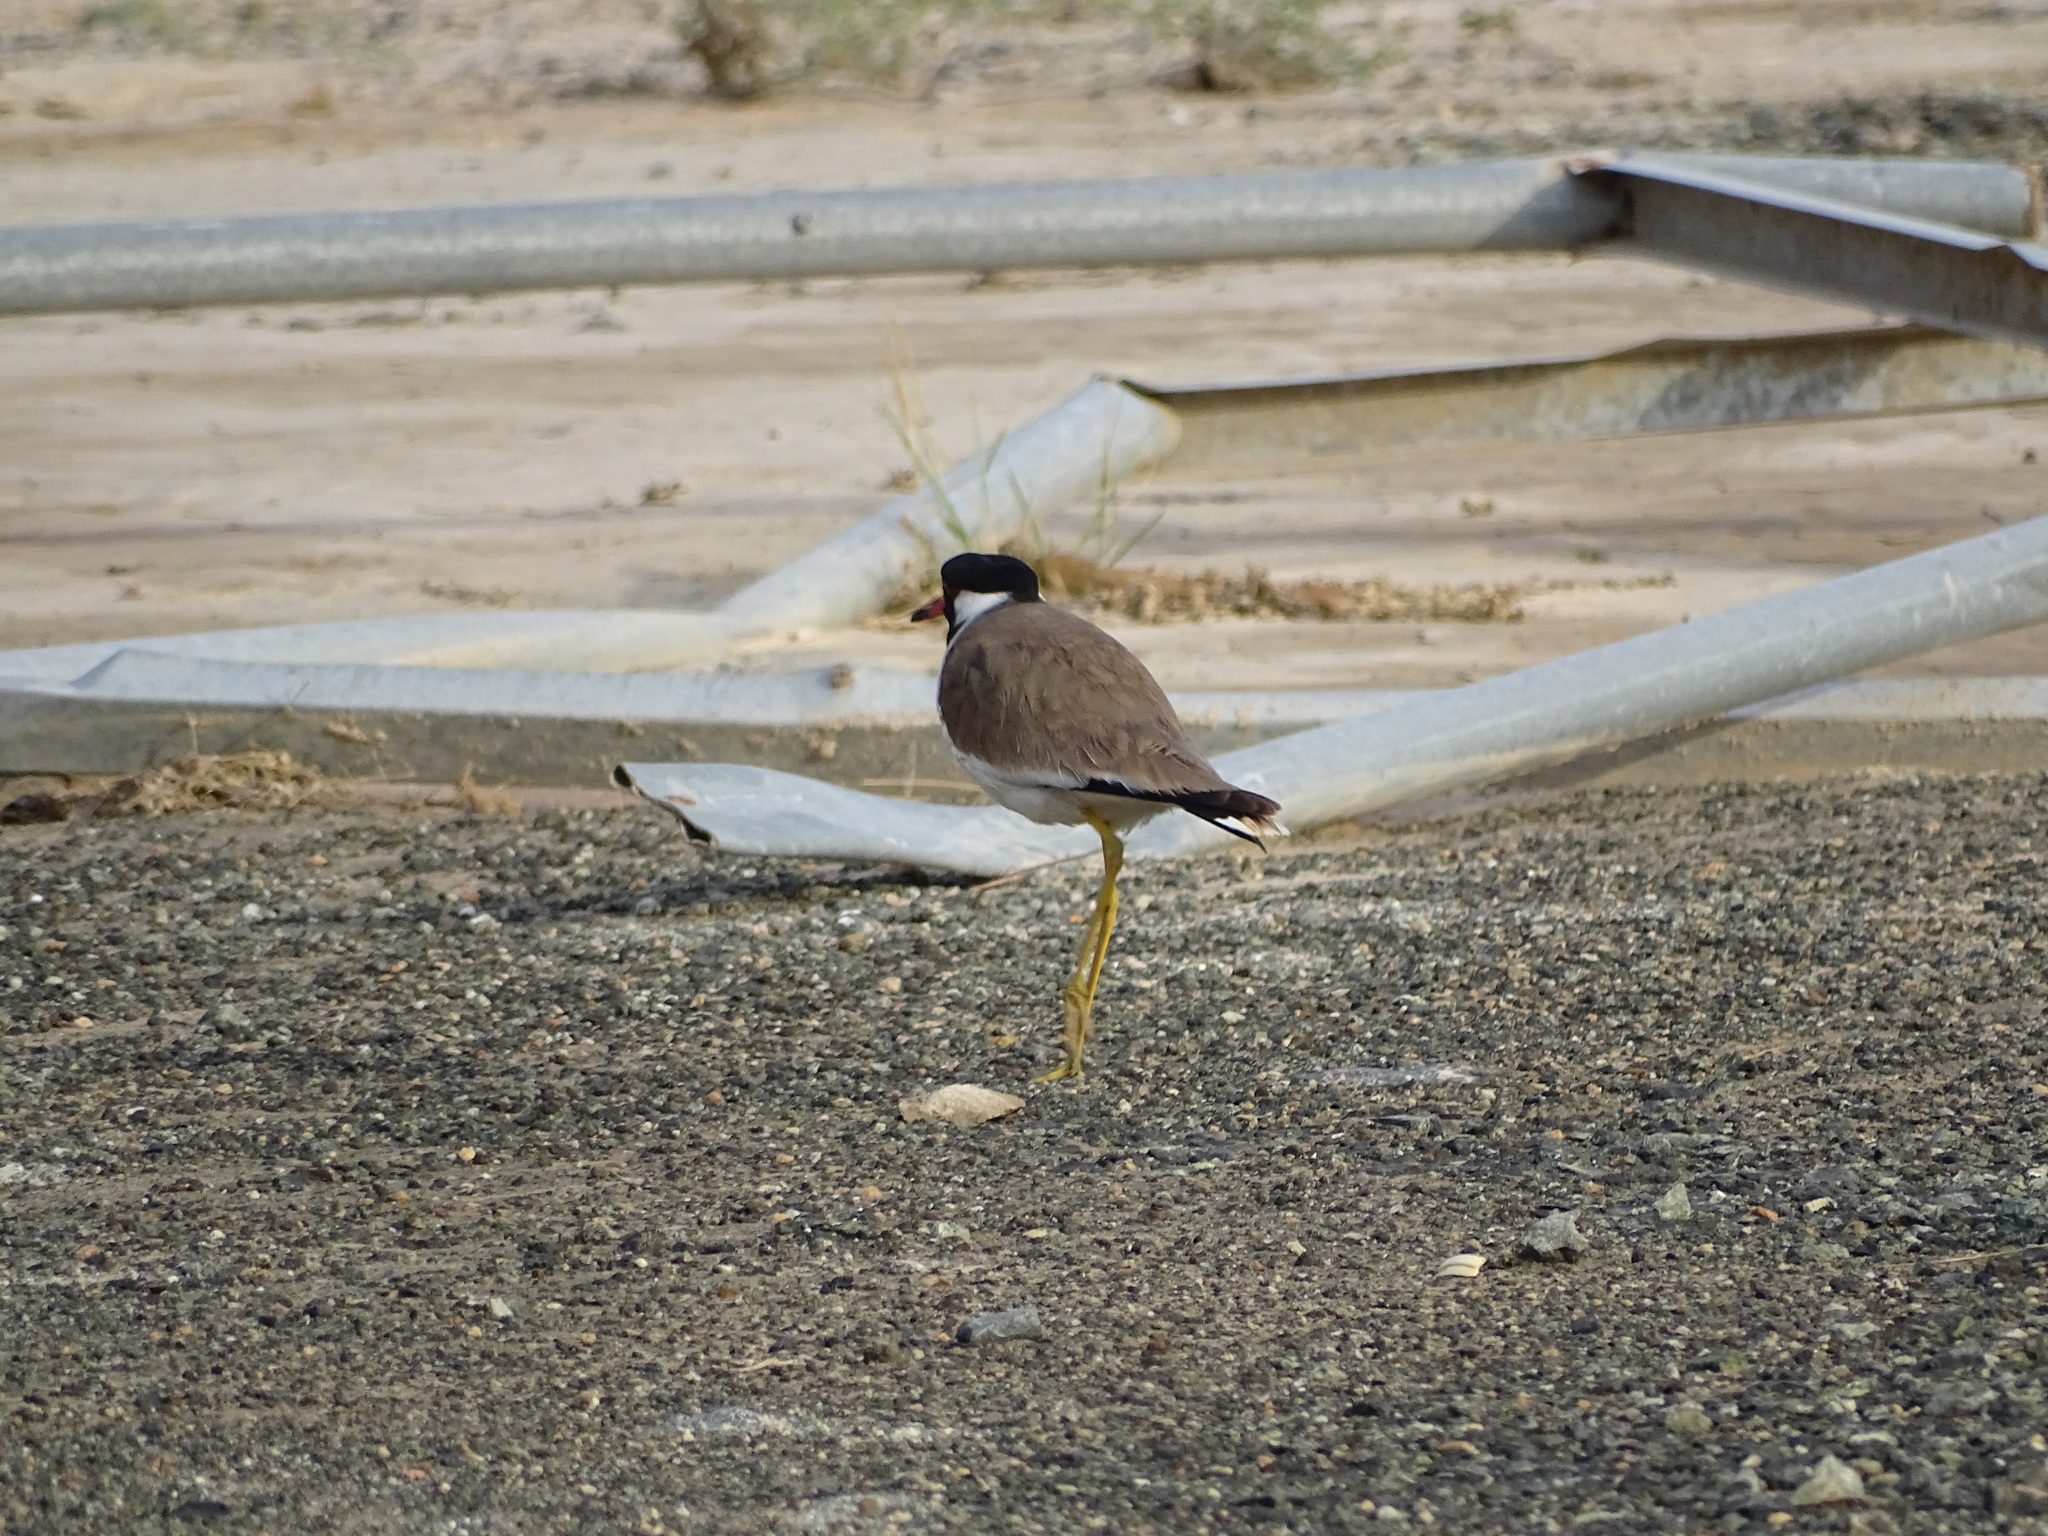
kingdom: Animalia
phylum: Chordata
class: Aves
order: Charadriiformes
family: Charadriidae
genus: Vanellus
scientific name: Vanellus indicus
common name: Red-wattled lapwing
